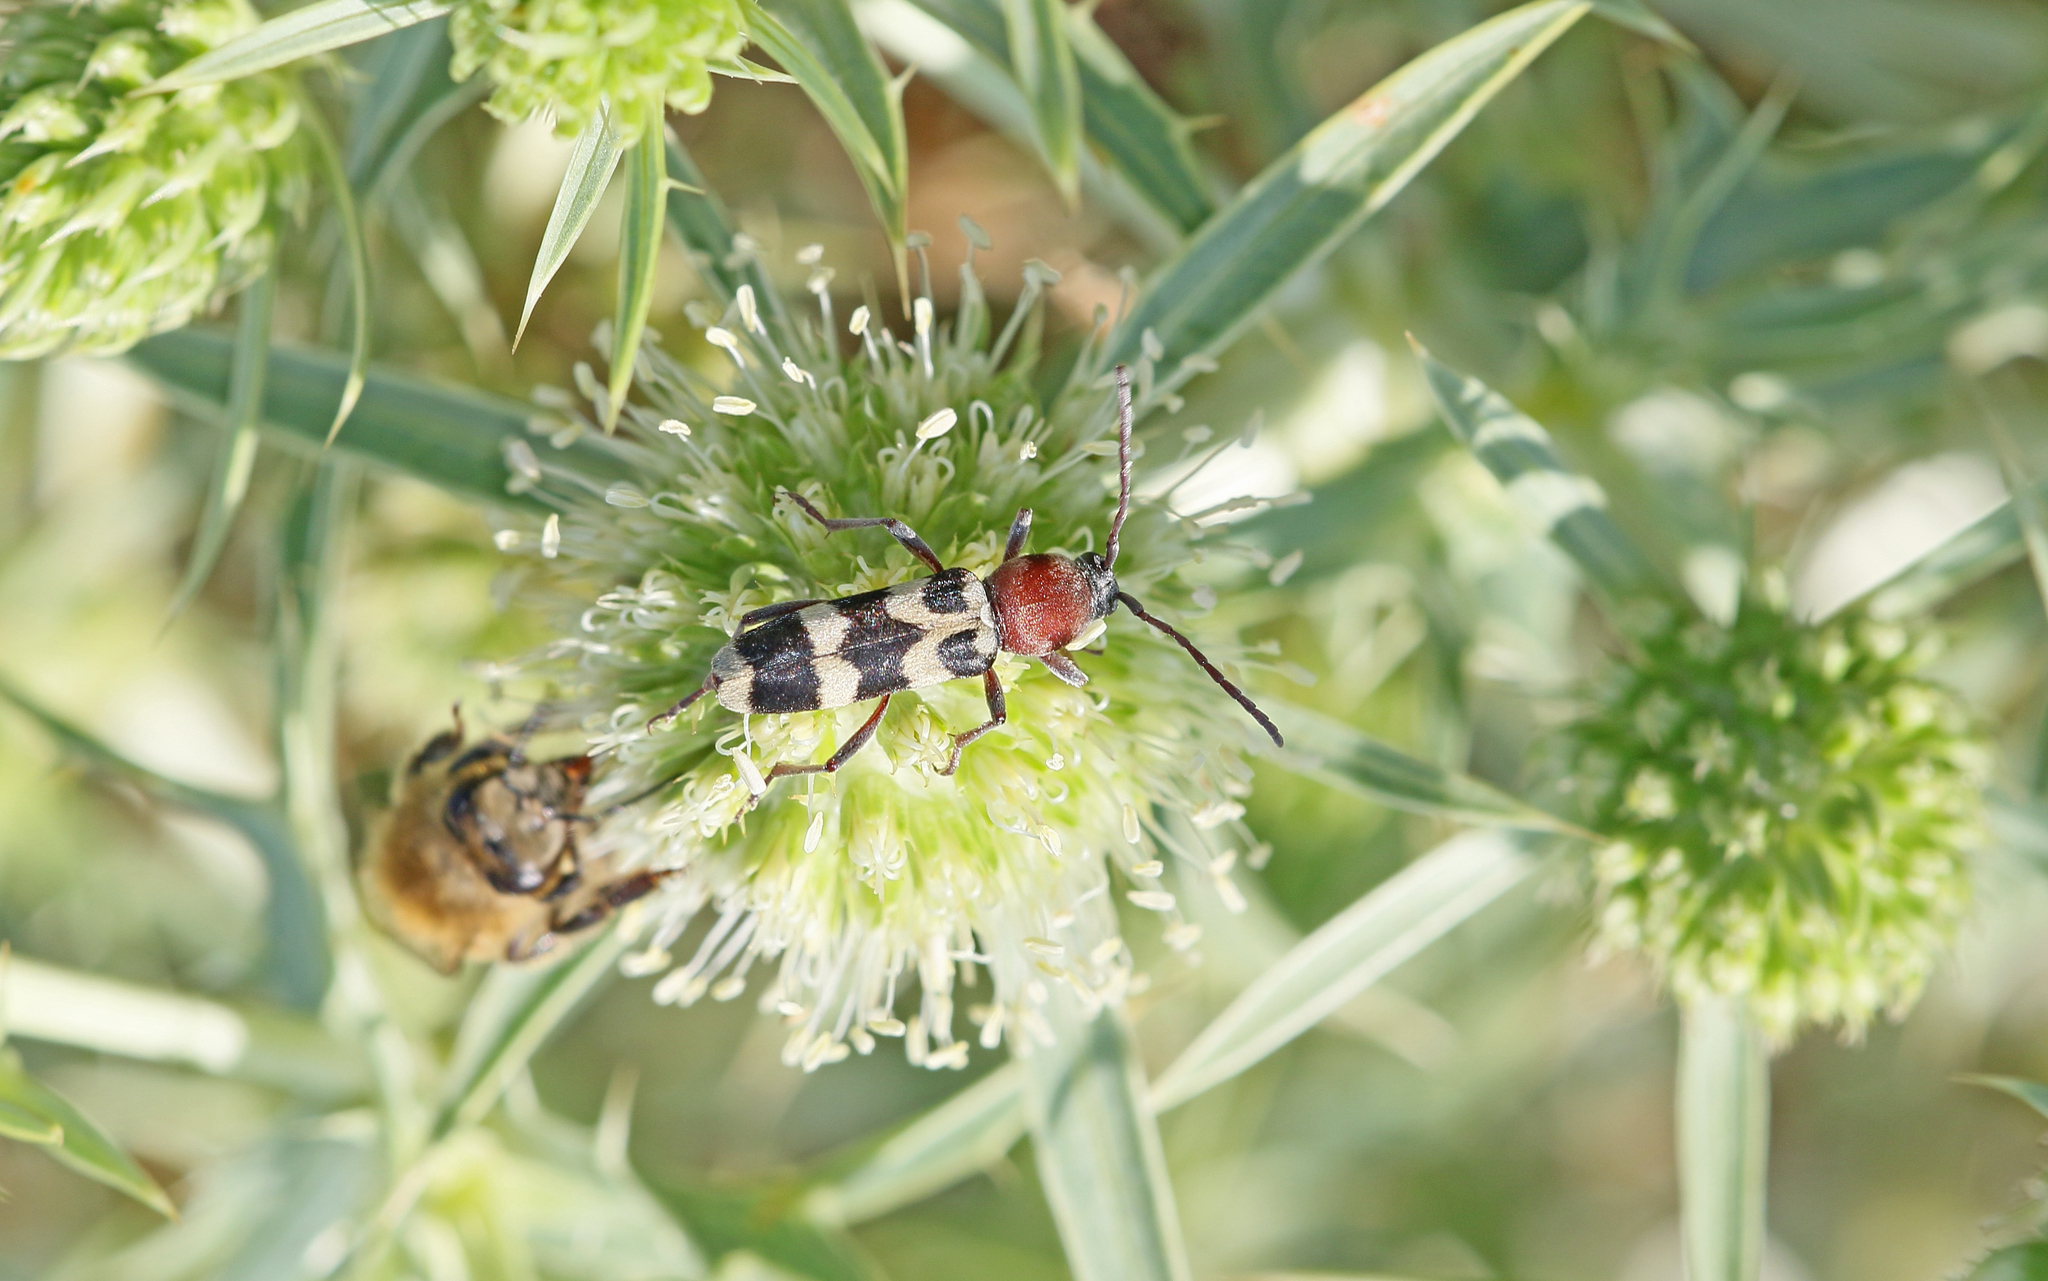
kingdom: Animalia
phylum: Arthropoda
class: Insecta
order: Coleoptera
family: Cerambycidae
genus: Chlorophorus
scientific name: Chlorophorus trifasciatus
